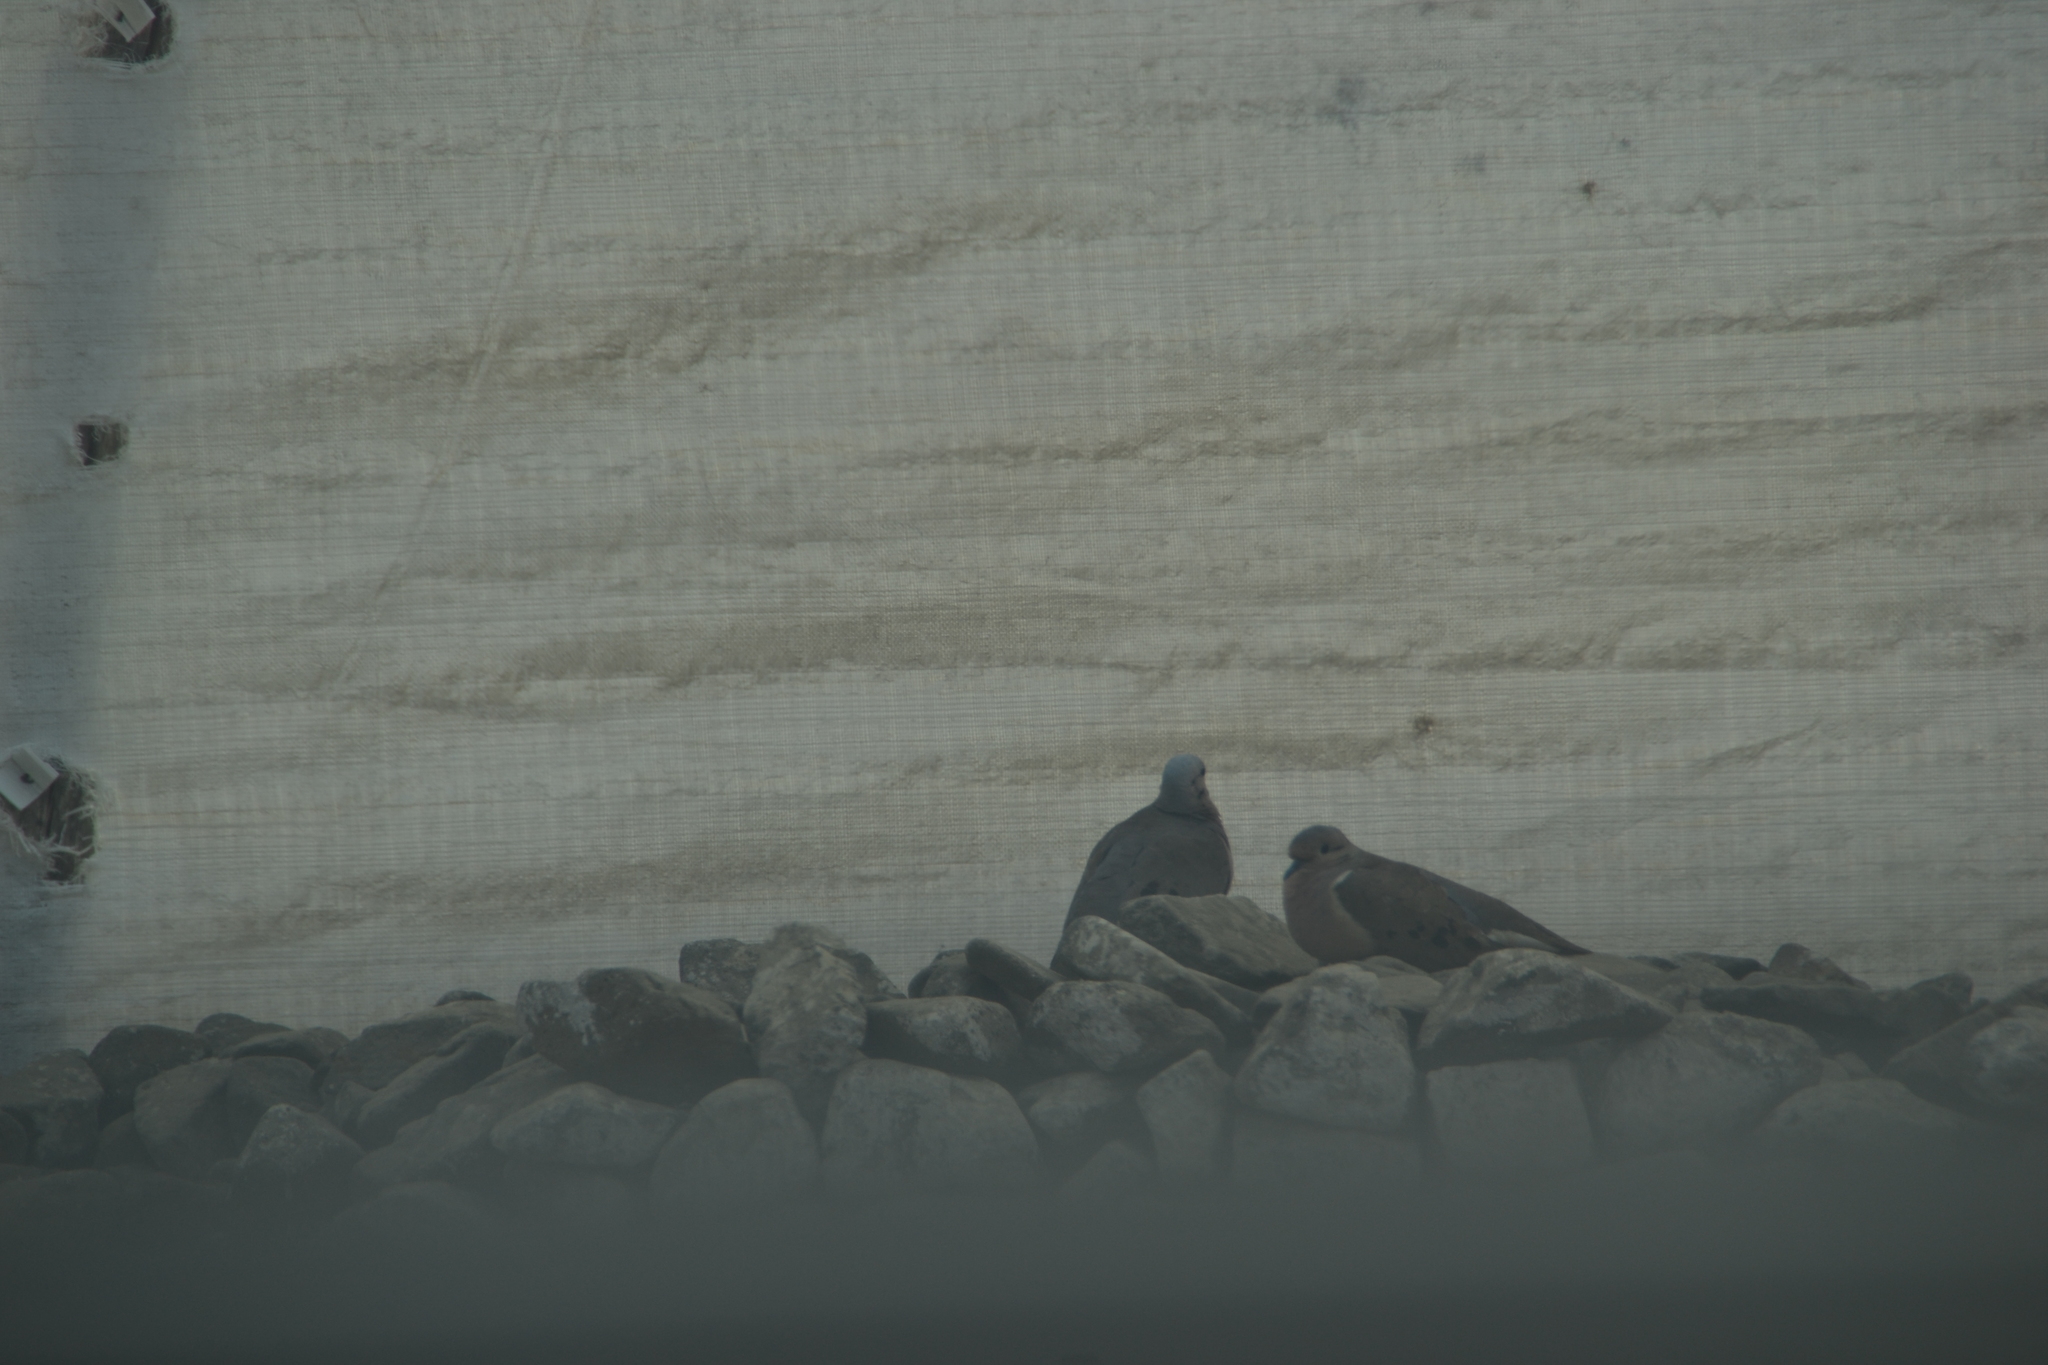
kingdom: Animalia
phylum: Chordata
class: Aves
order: Columbiformes
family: Columbidae
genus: Zenaida
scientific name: Zenaida auriculata
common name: Eared dove
